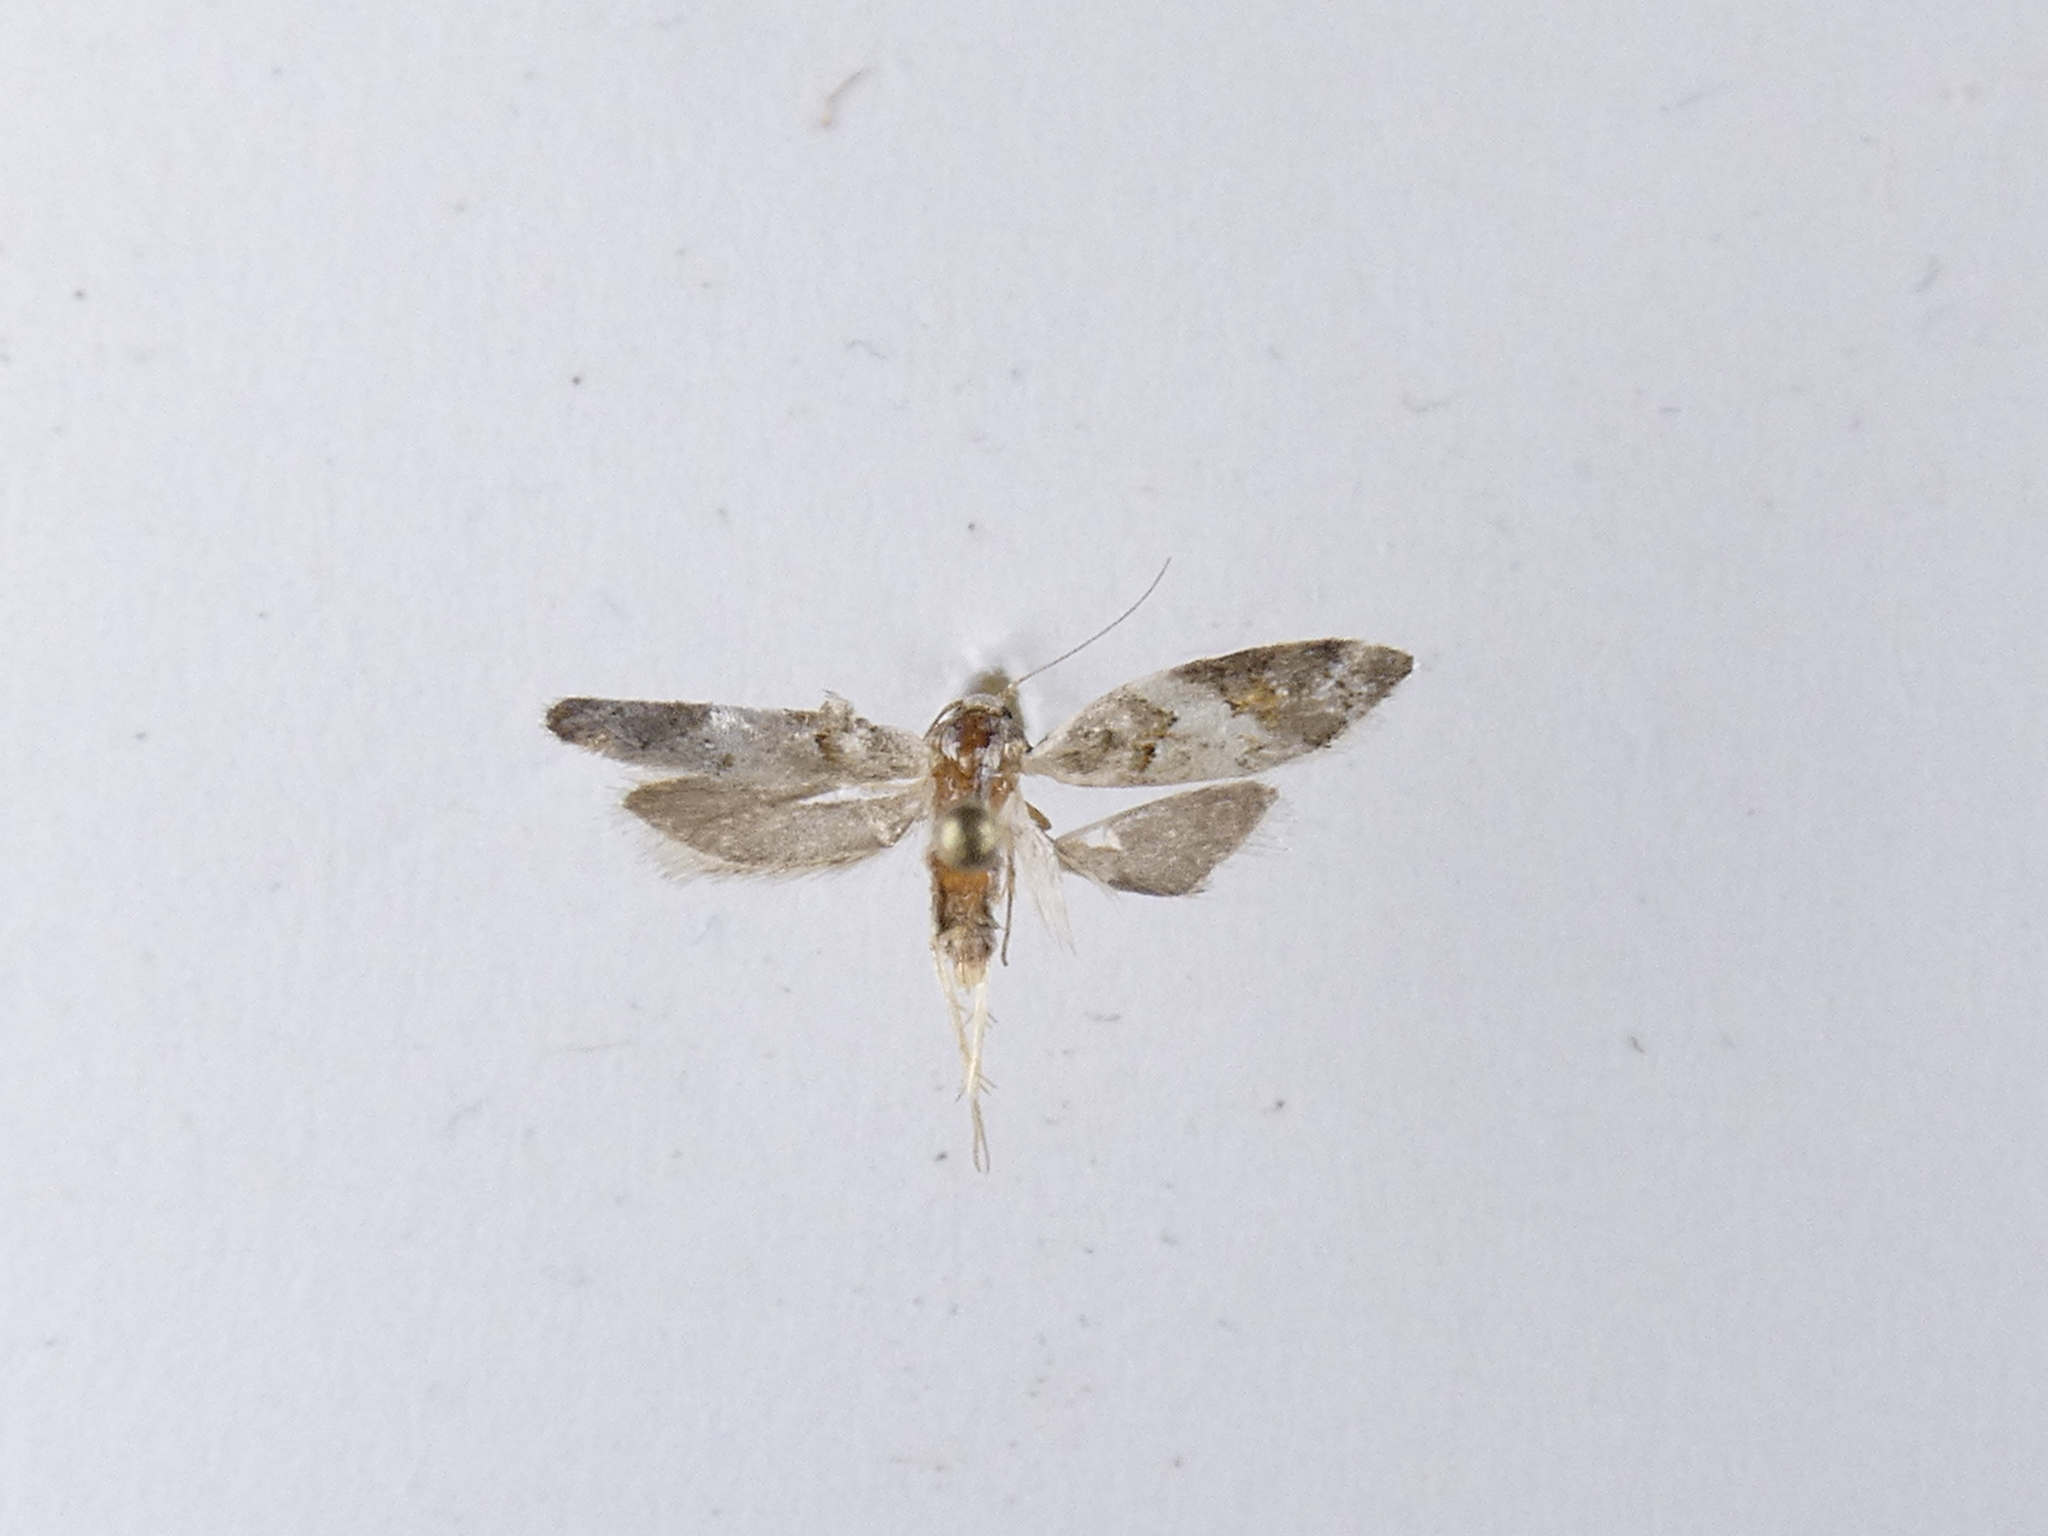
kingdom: Animalia
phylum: Arthropoda
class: Insecta
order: Lepidoptera
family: Oecophoridae
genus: Trachypepla
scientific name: Trachypepla galaxias
